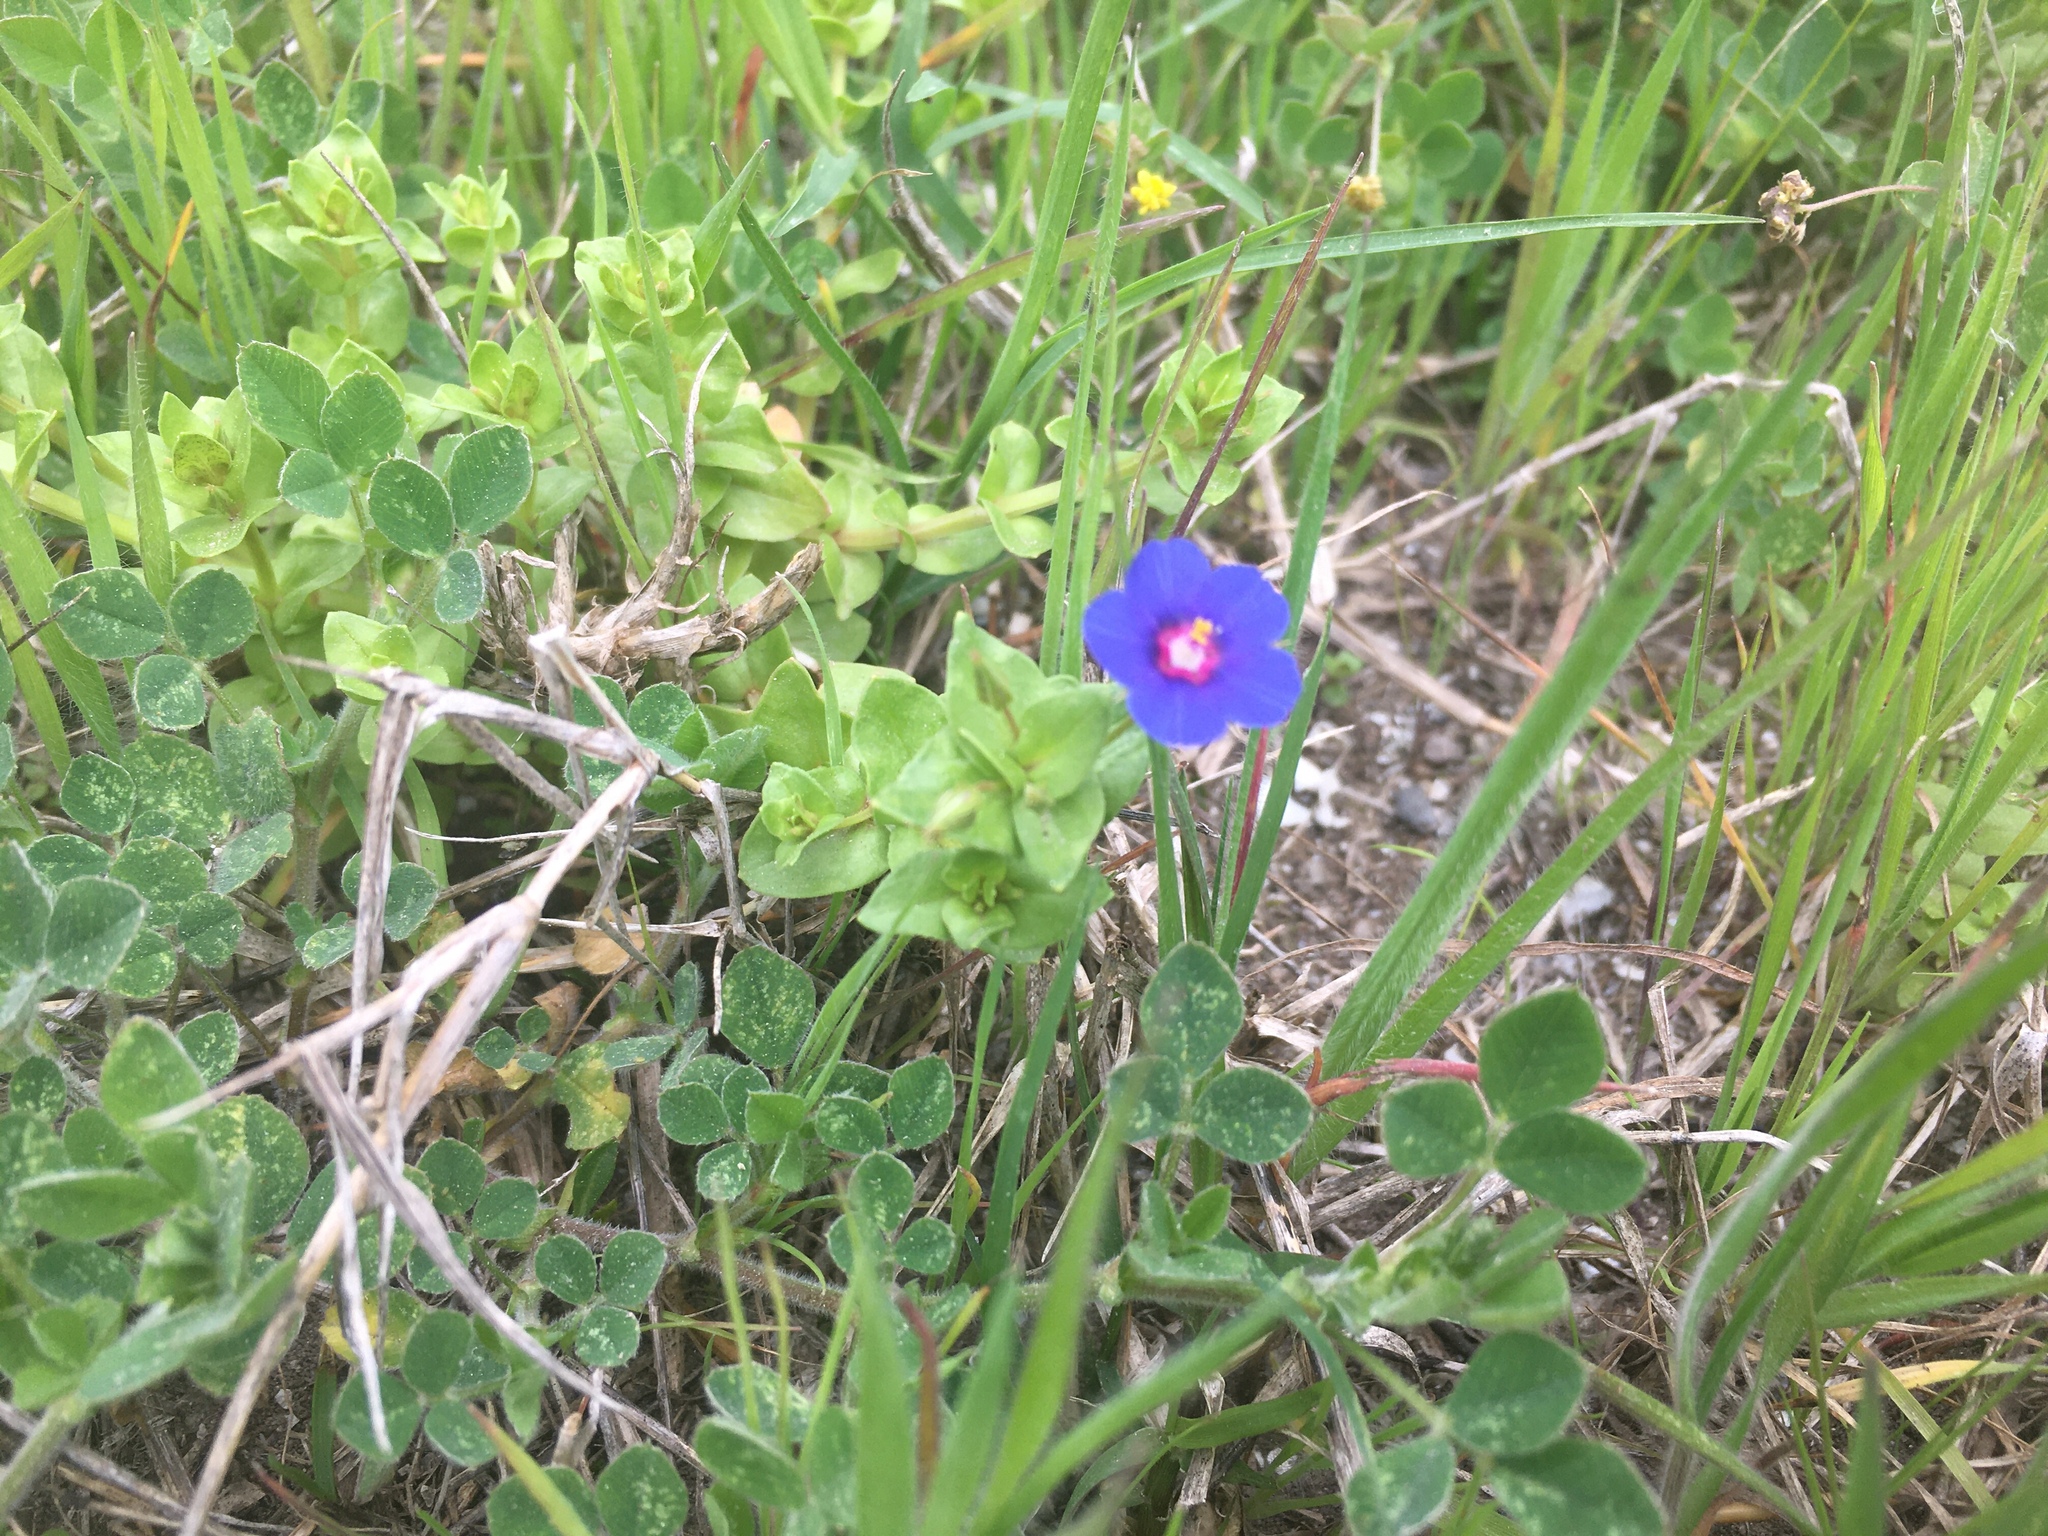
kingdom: Plantae
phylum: Tracheophyta
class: Magnoliopsida
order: Ericales
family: Primulaceae
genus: Lysimachia
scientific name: Lysimachia arvensis
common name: Scarlet pimpernel
